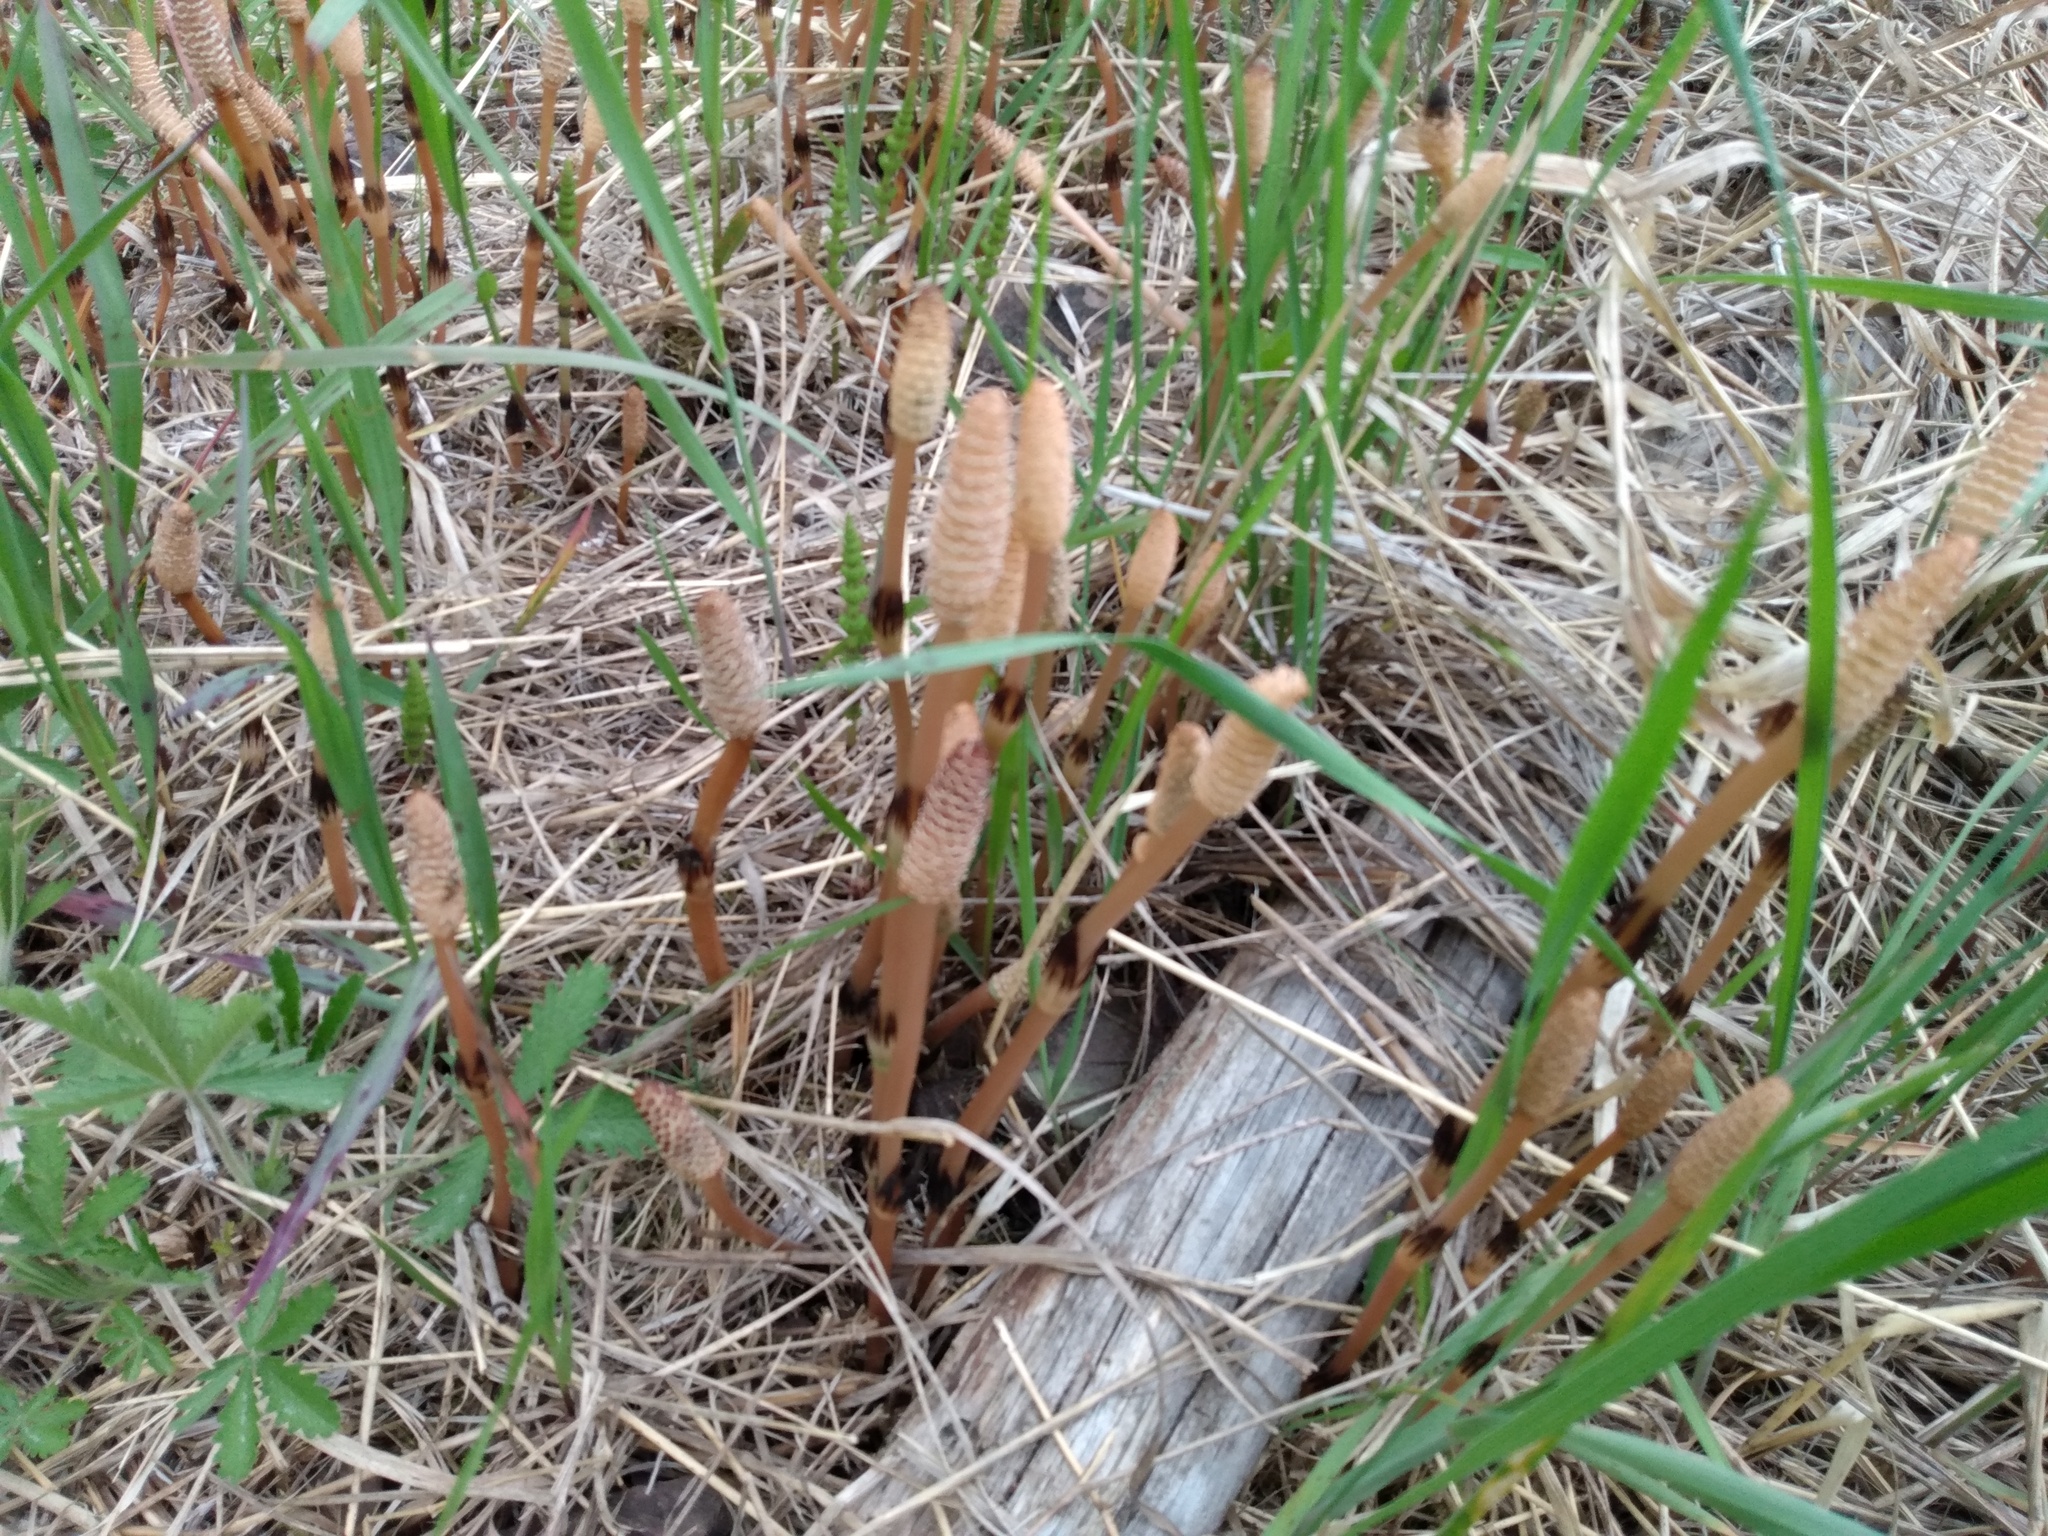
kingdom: Plantae
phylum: Tracheophyta
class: Polypodiopsida
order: Equisetales
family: Equisetaceae
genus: Equisetum
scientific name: Equisetum arvense
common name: Field horsetail
